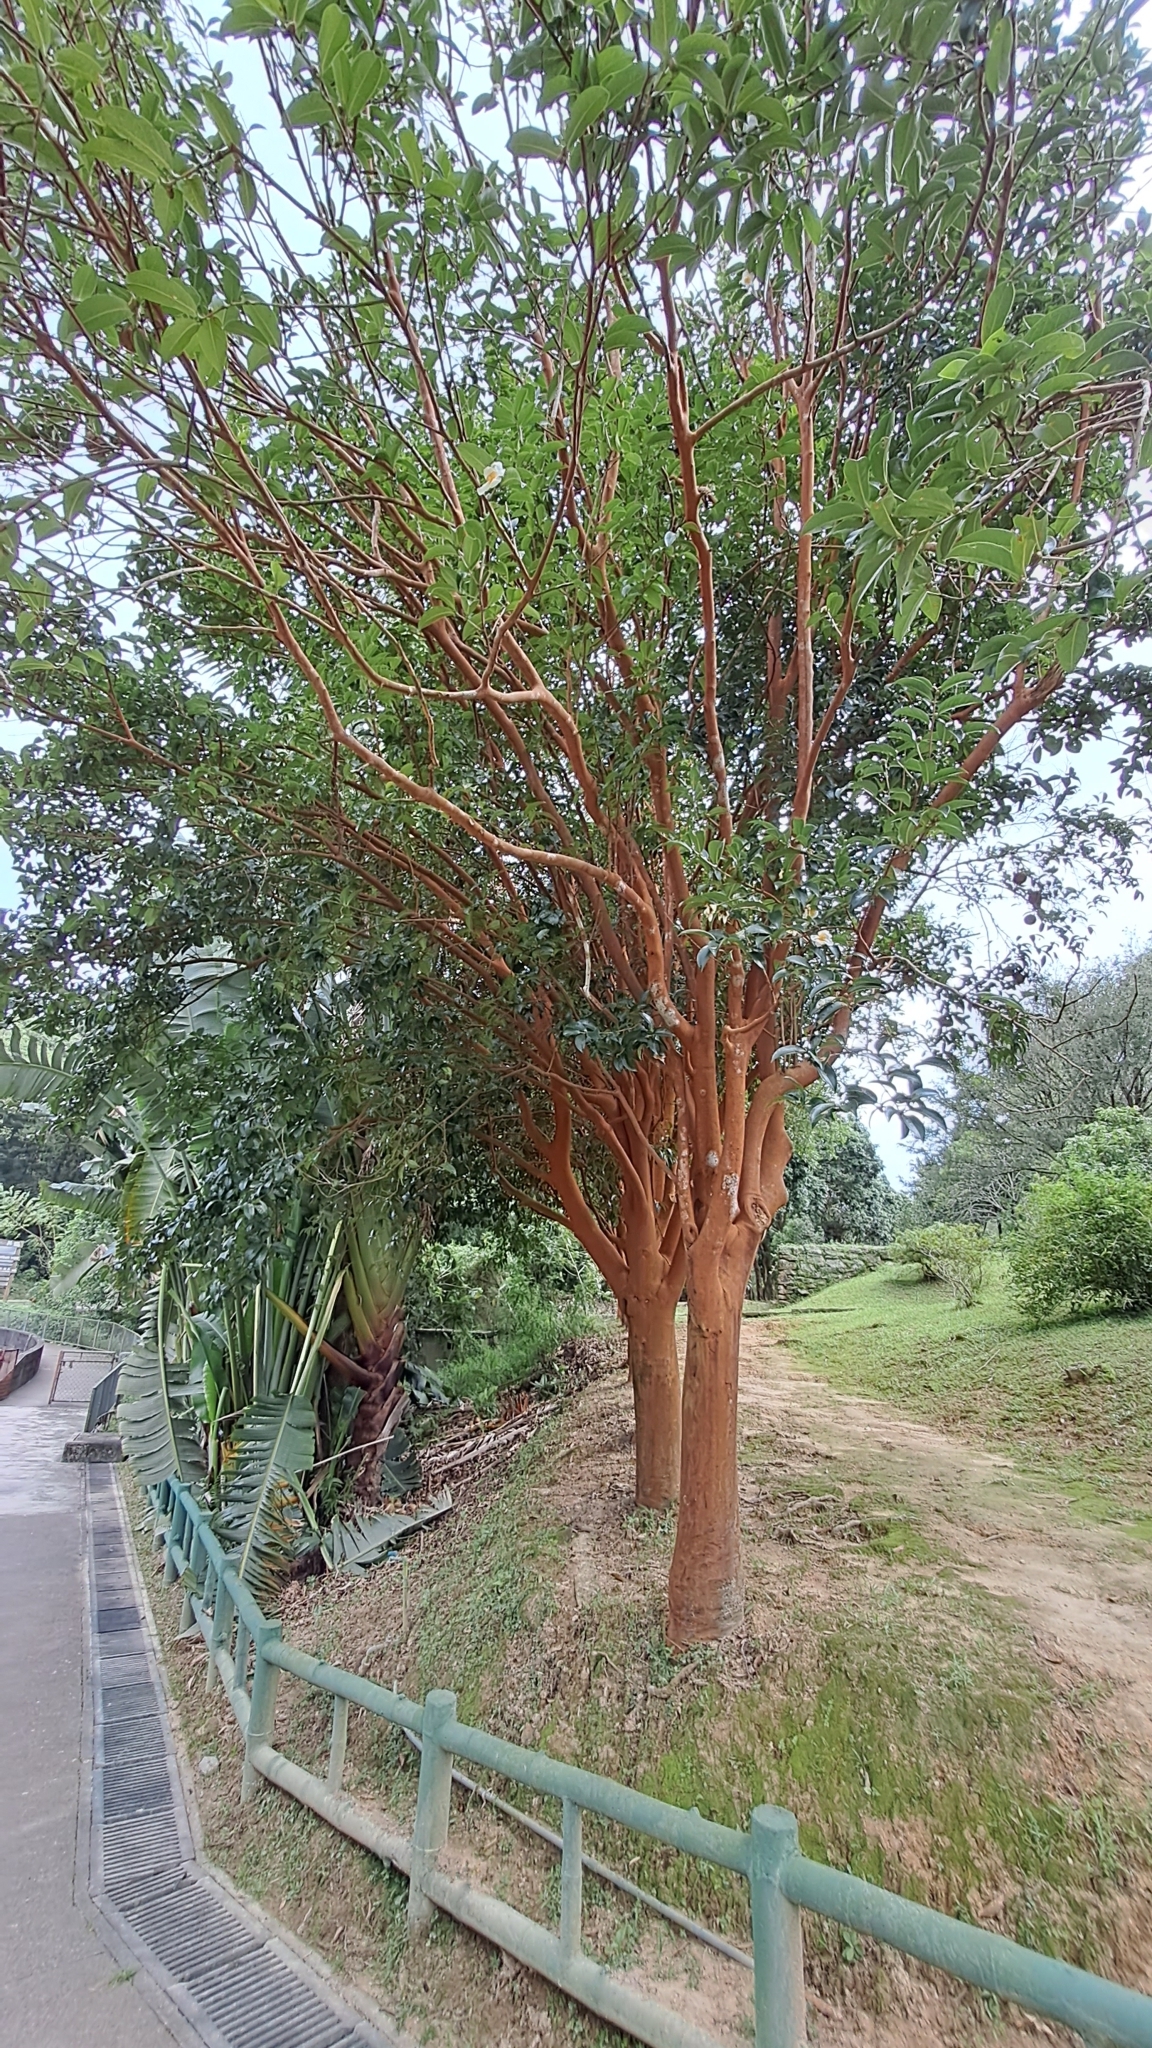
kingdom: Plantae
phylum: Tracheophyta
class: Magnoliopsida
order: Ericales
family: Theaceae
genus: Camellia
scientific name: Camellia crapnelliana
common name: Crapnell's camellia
